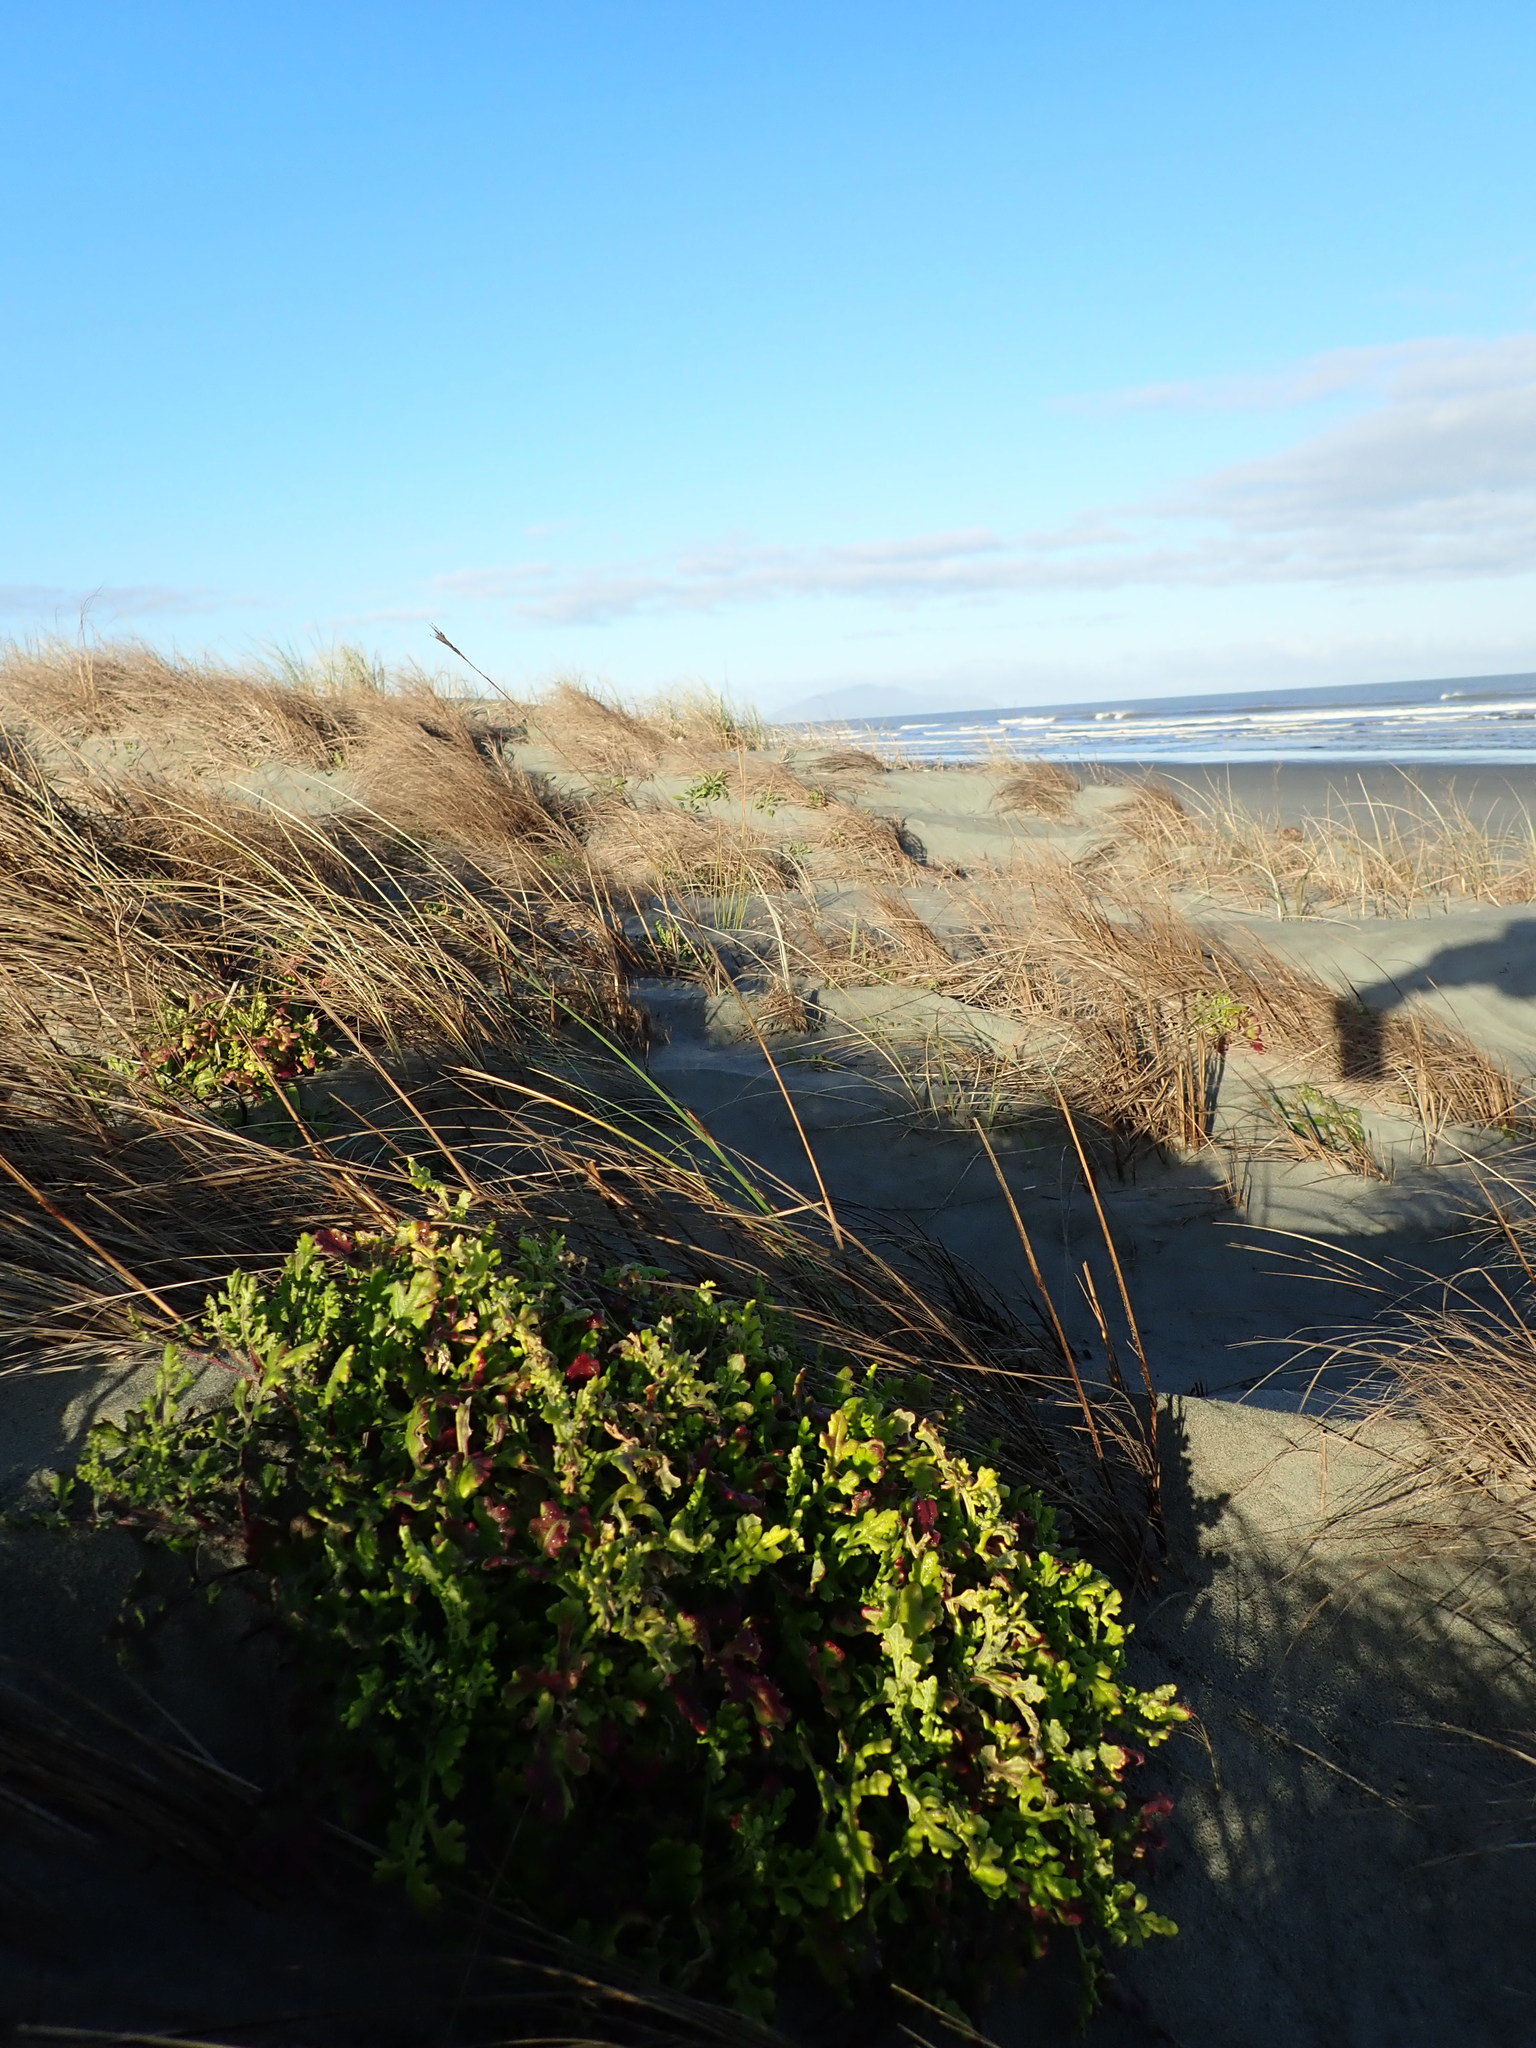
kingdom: Plantae
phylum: Tracheophyta
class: Magnoliopsida
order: Asterales
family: Asteraceae
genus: Senecio
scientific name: Senecio elegans
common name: Purple groundsel
